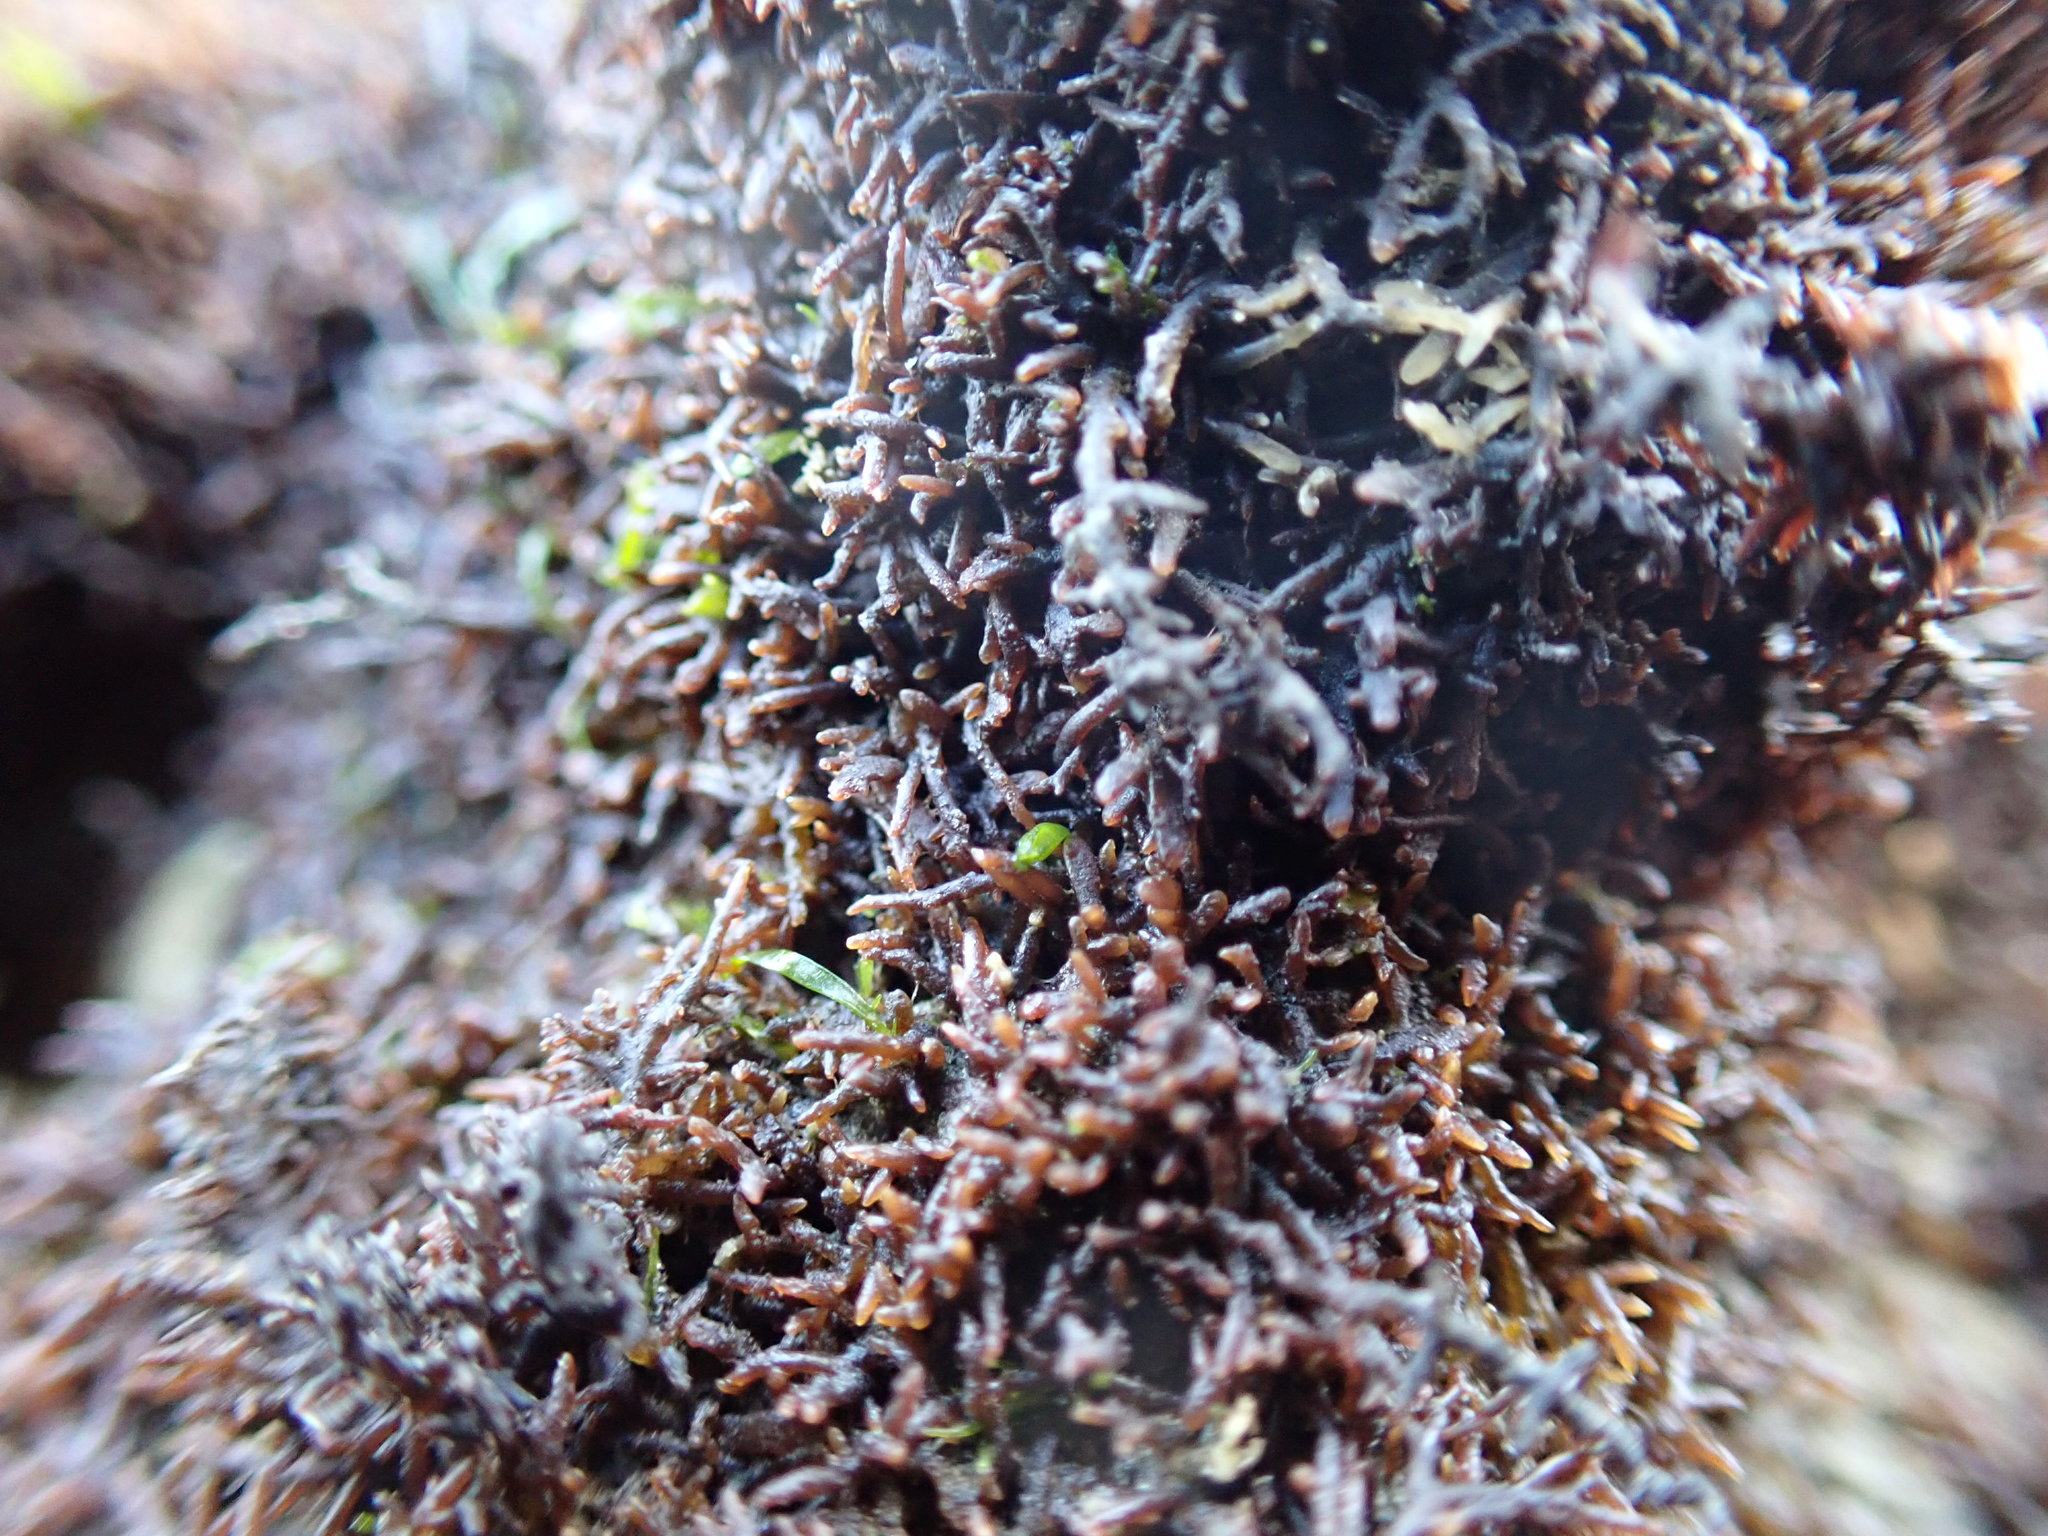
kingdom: Plantae
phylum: Rhodophyta
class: Florideophyceae
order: Gelidiales
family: Gelidiaceae
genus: Capreolia
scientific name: Capreolia implexa
